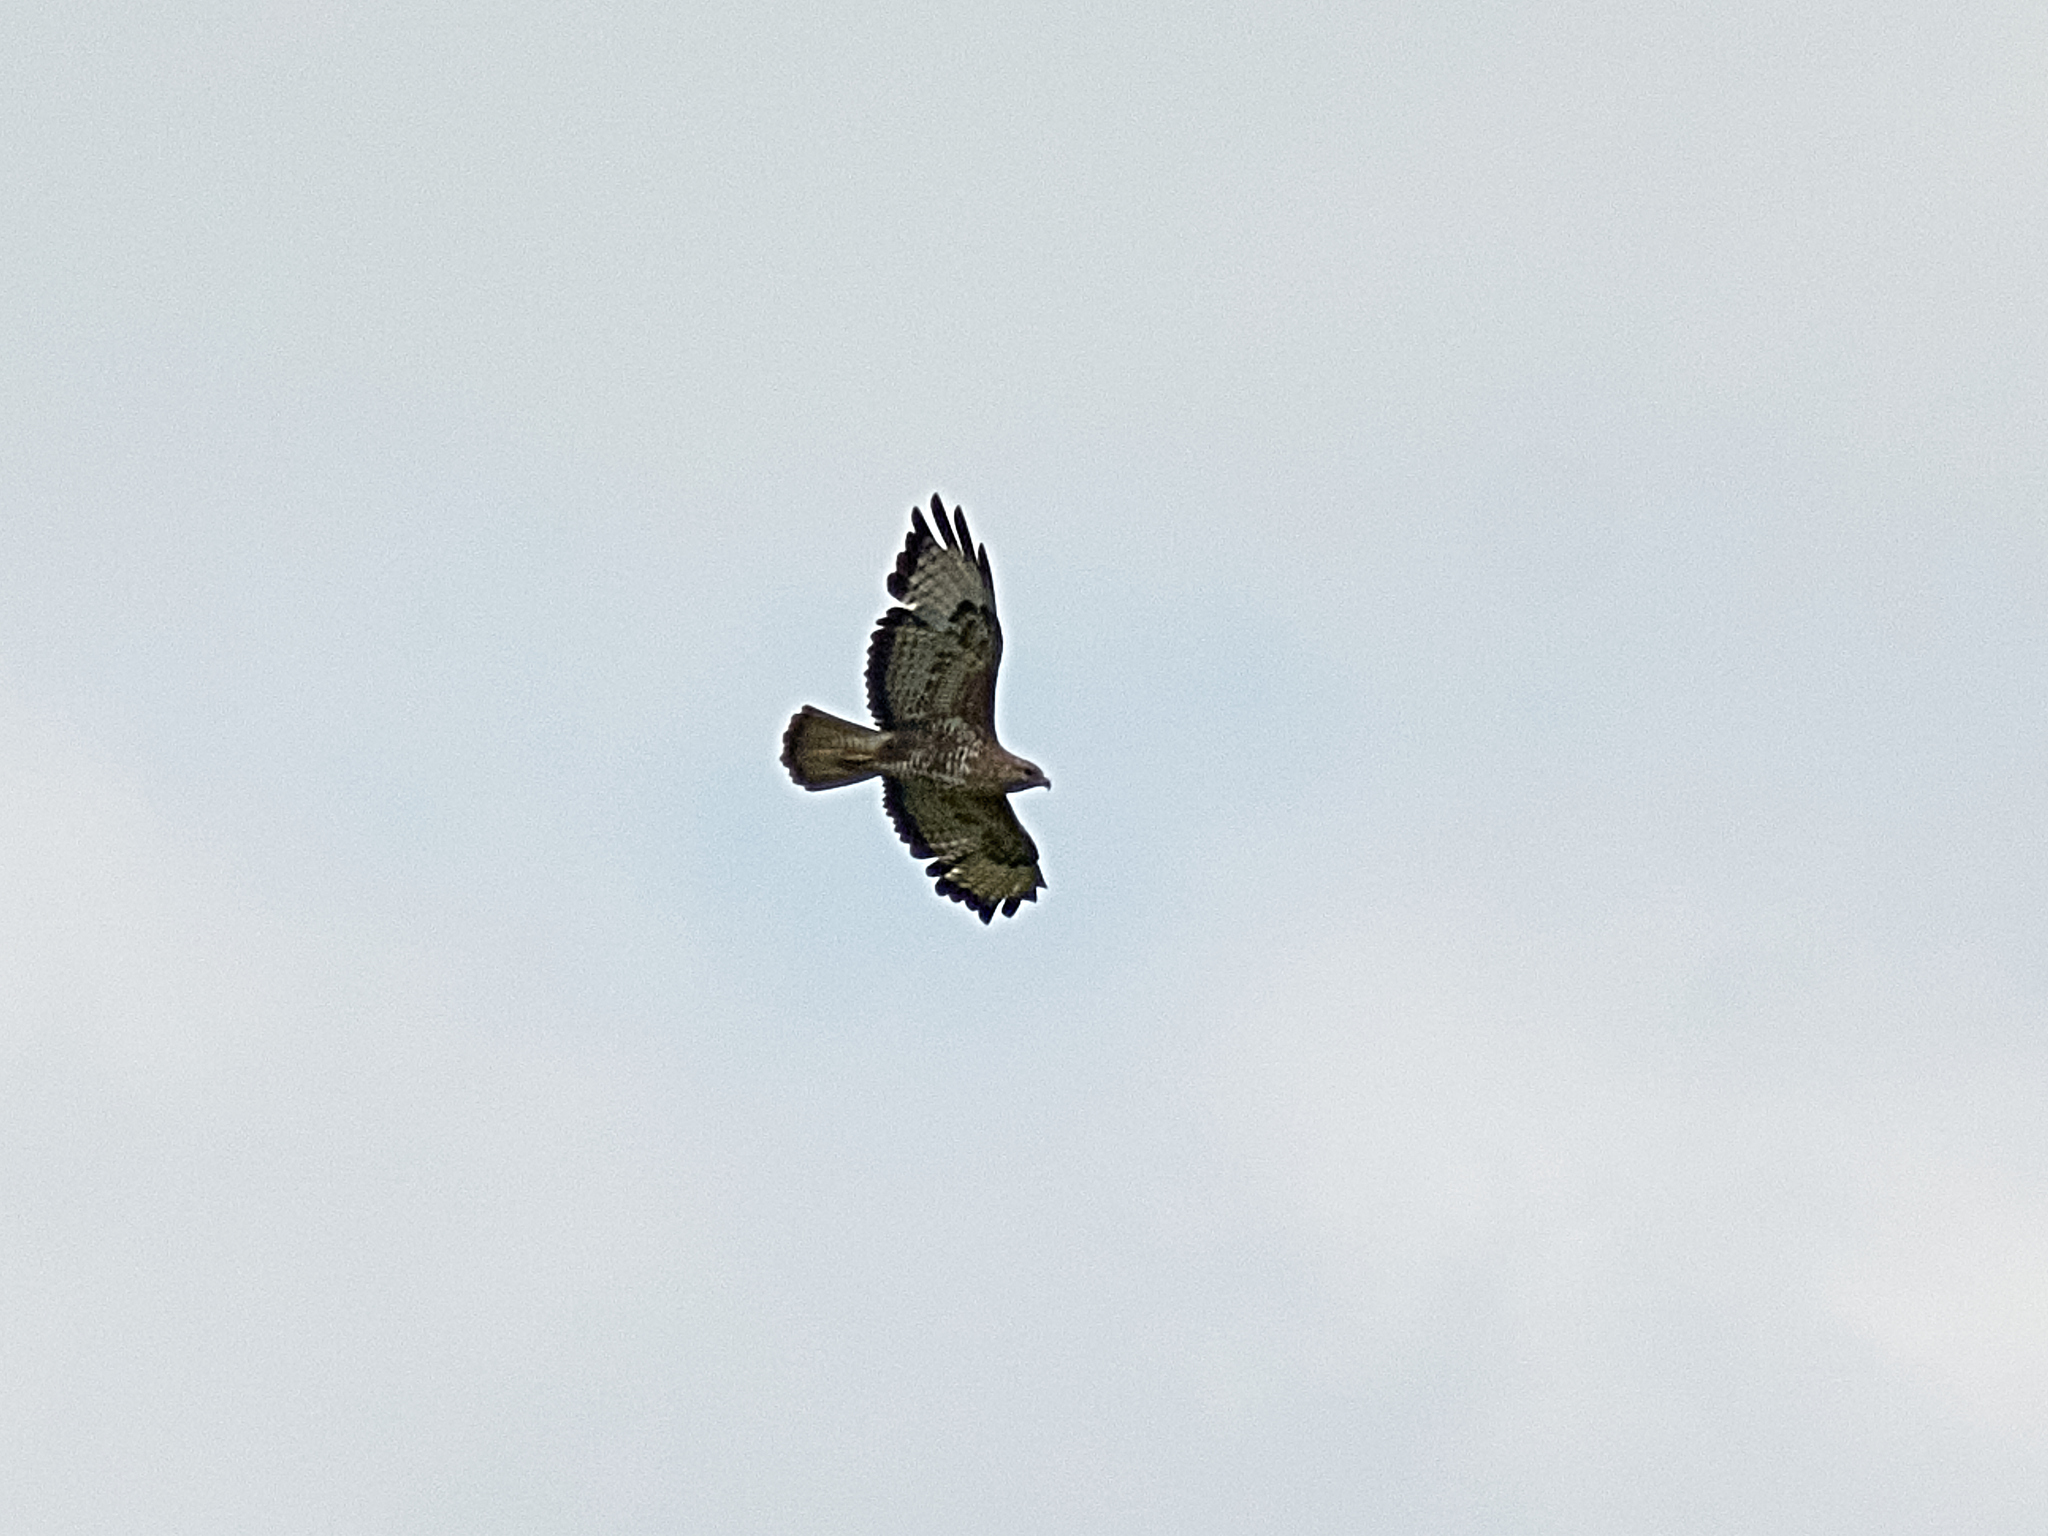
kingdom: Animalia
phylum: Chordata
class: Aves
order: Accipitriformes
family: Accipitridae
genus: Buteo
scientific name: Buteo buteo
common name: Common buzzard
